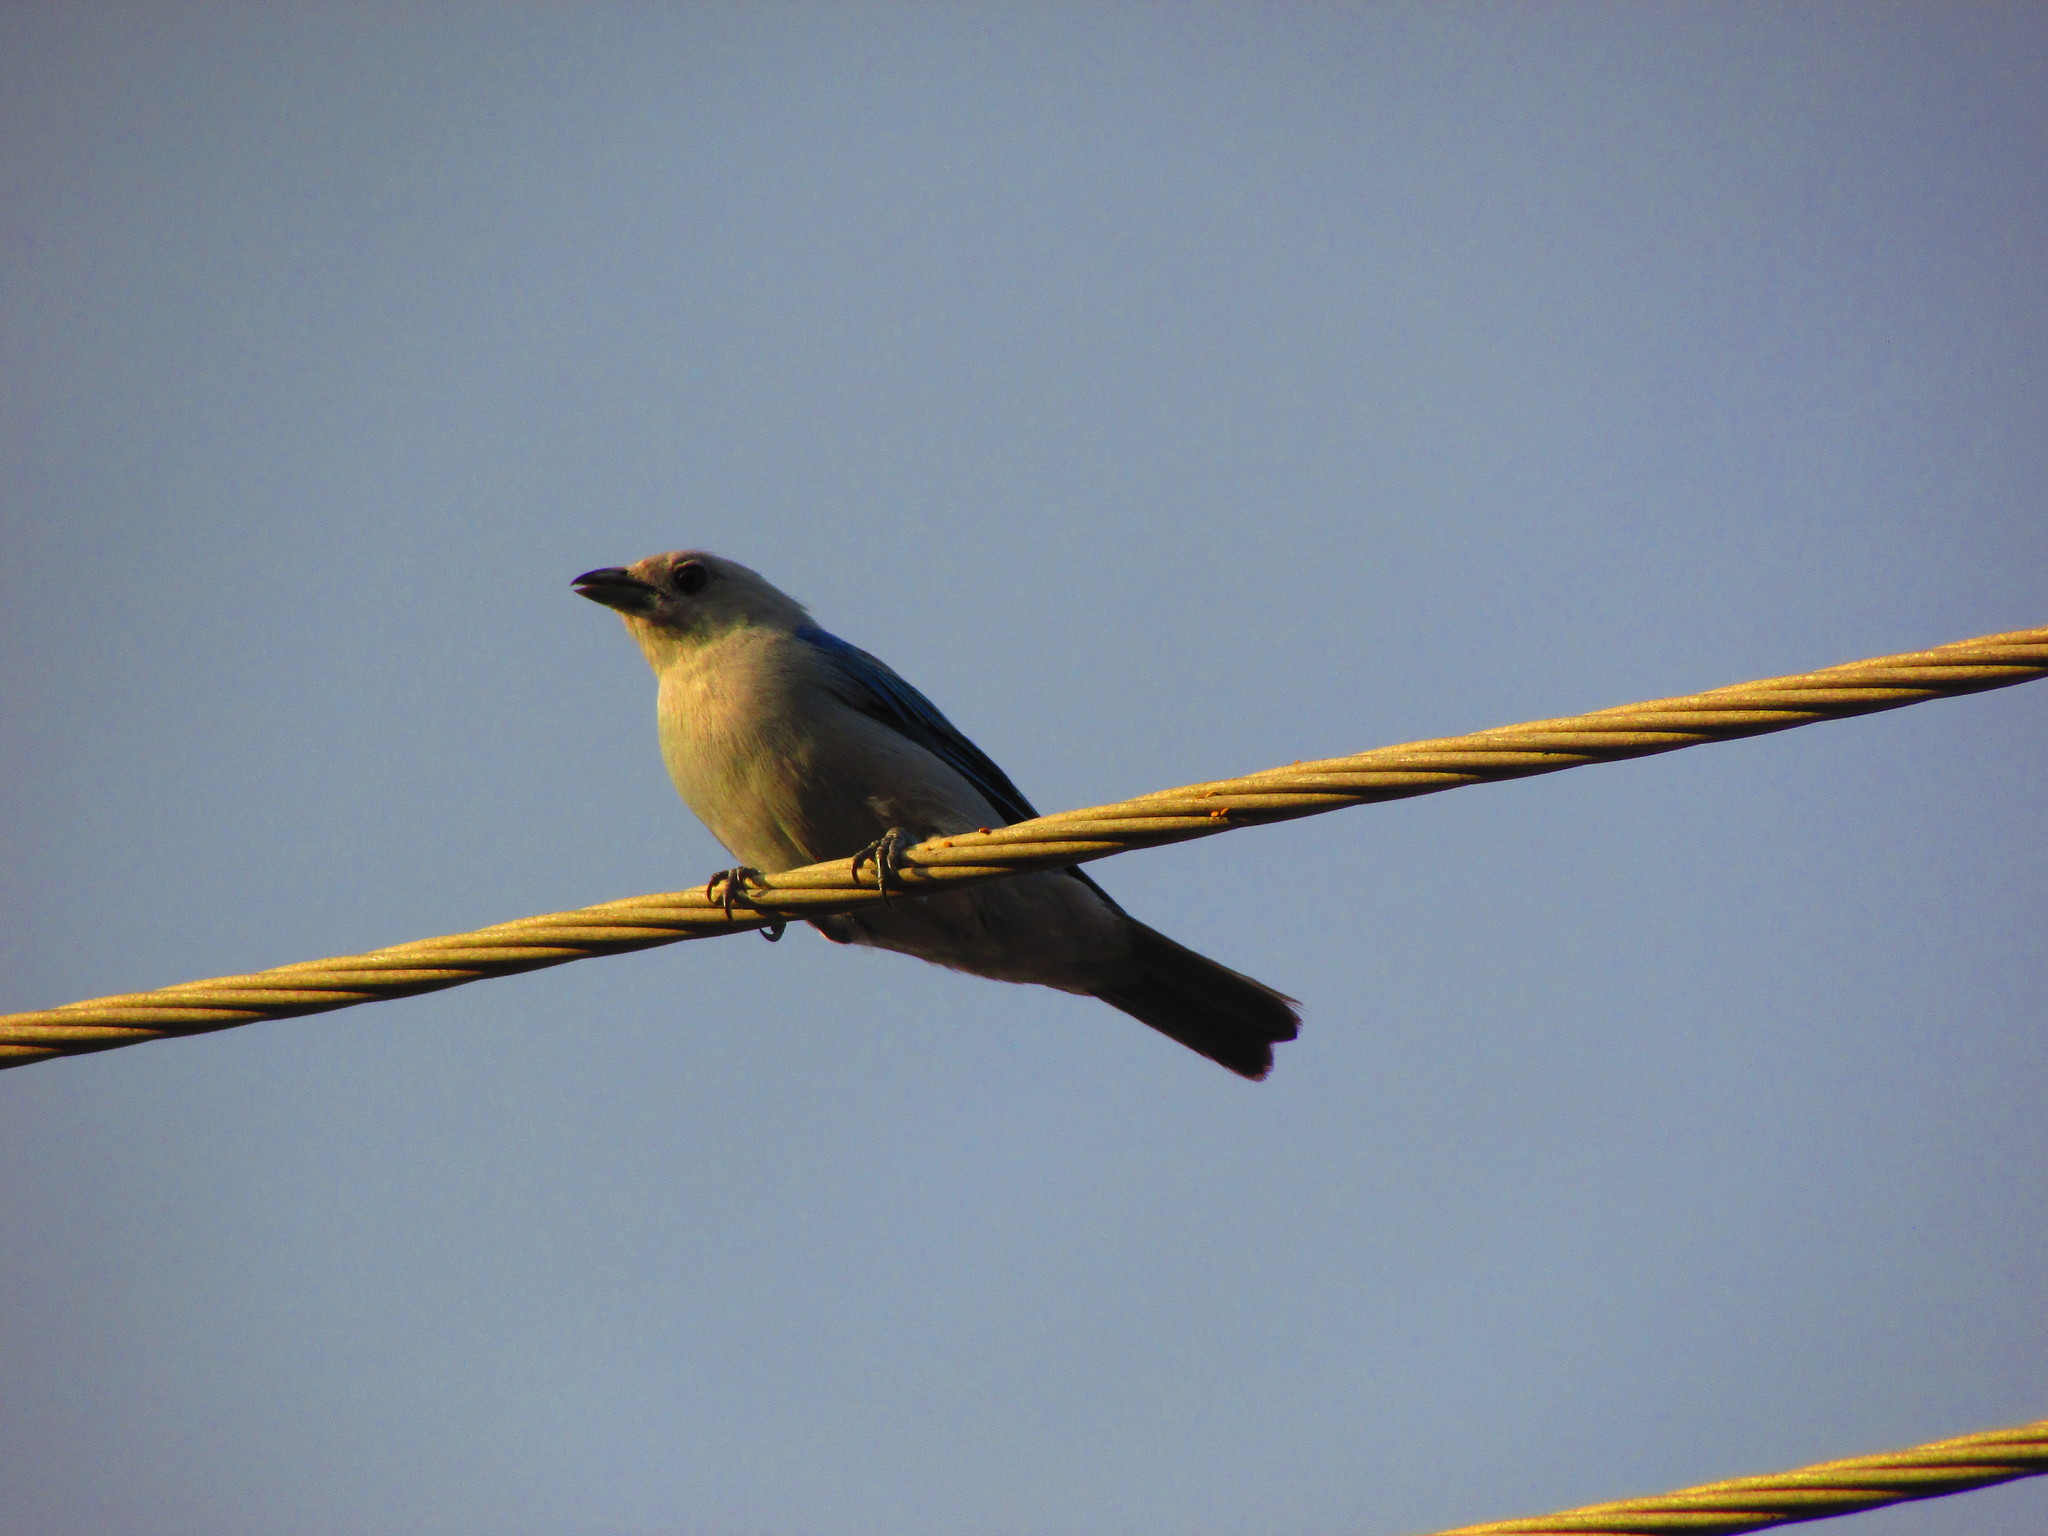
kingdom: Animalia
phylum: Chordata
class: Aves
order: Passeriformes
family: Thraupidae
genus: Thraupis
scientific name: Thraupis episcopus
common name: Blue-grey tanager
